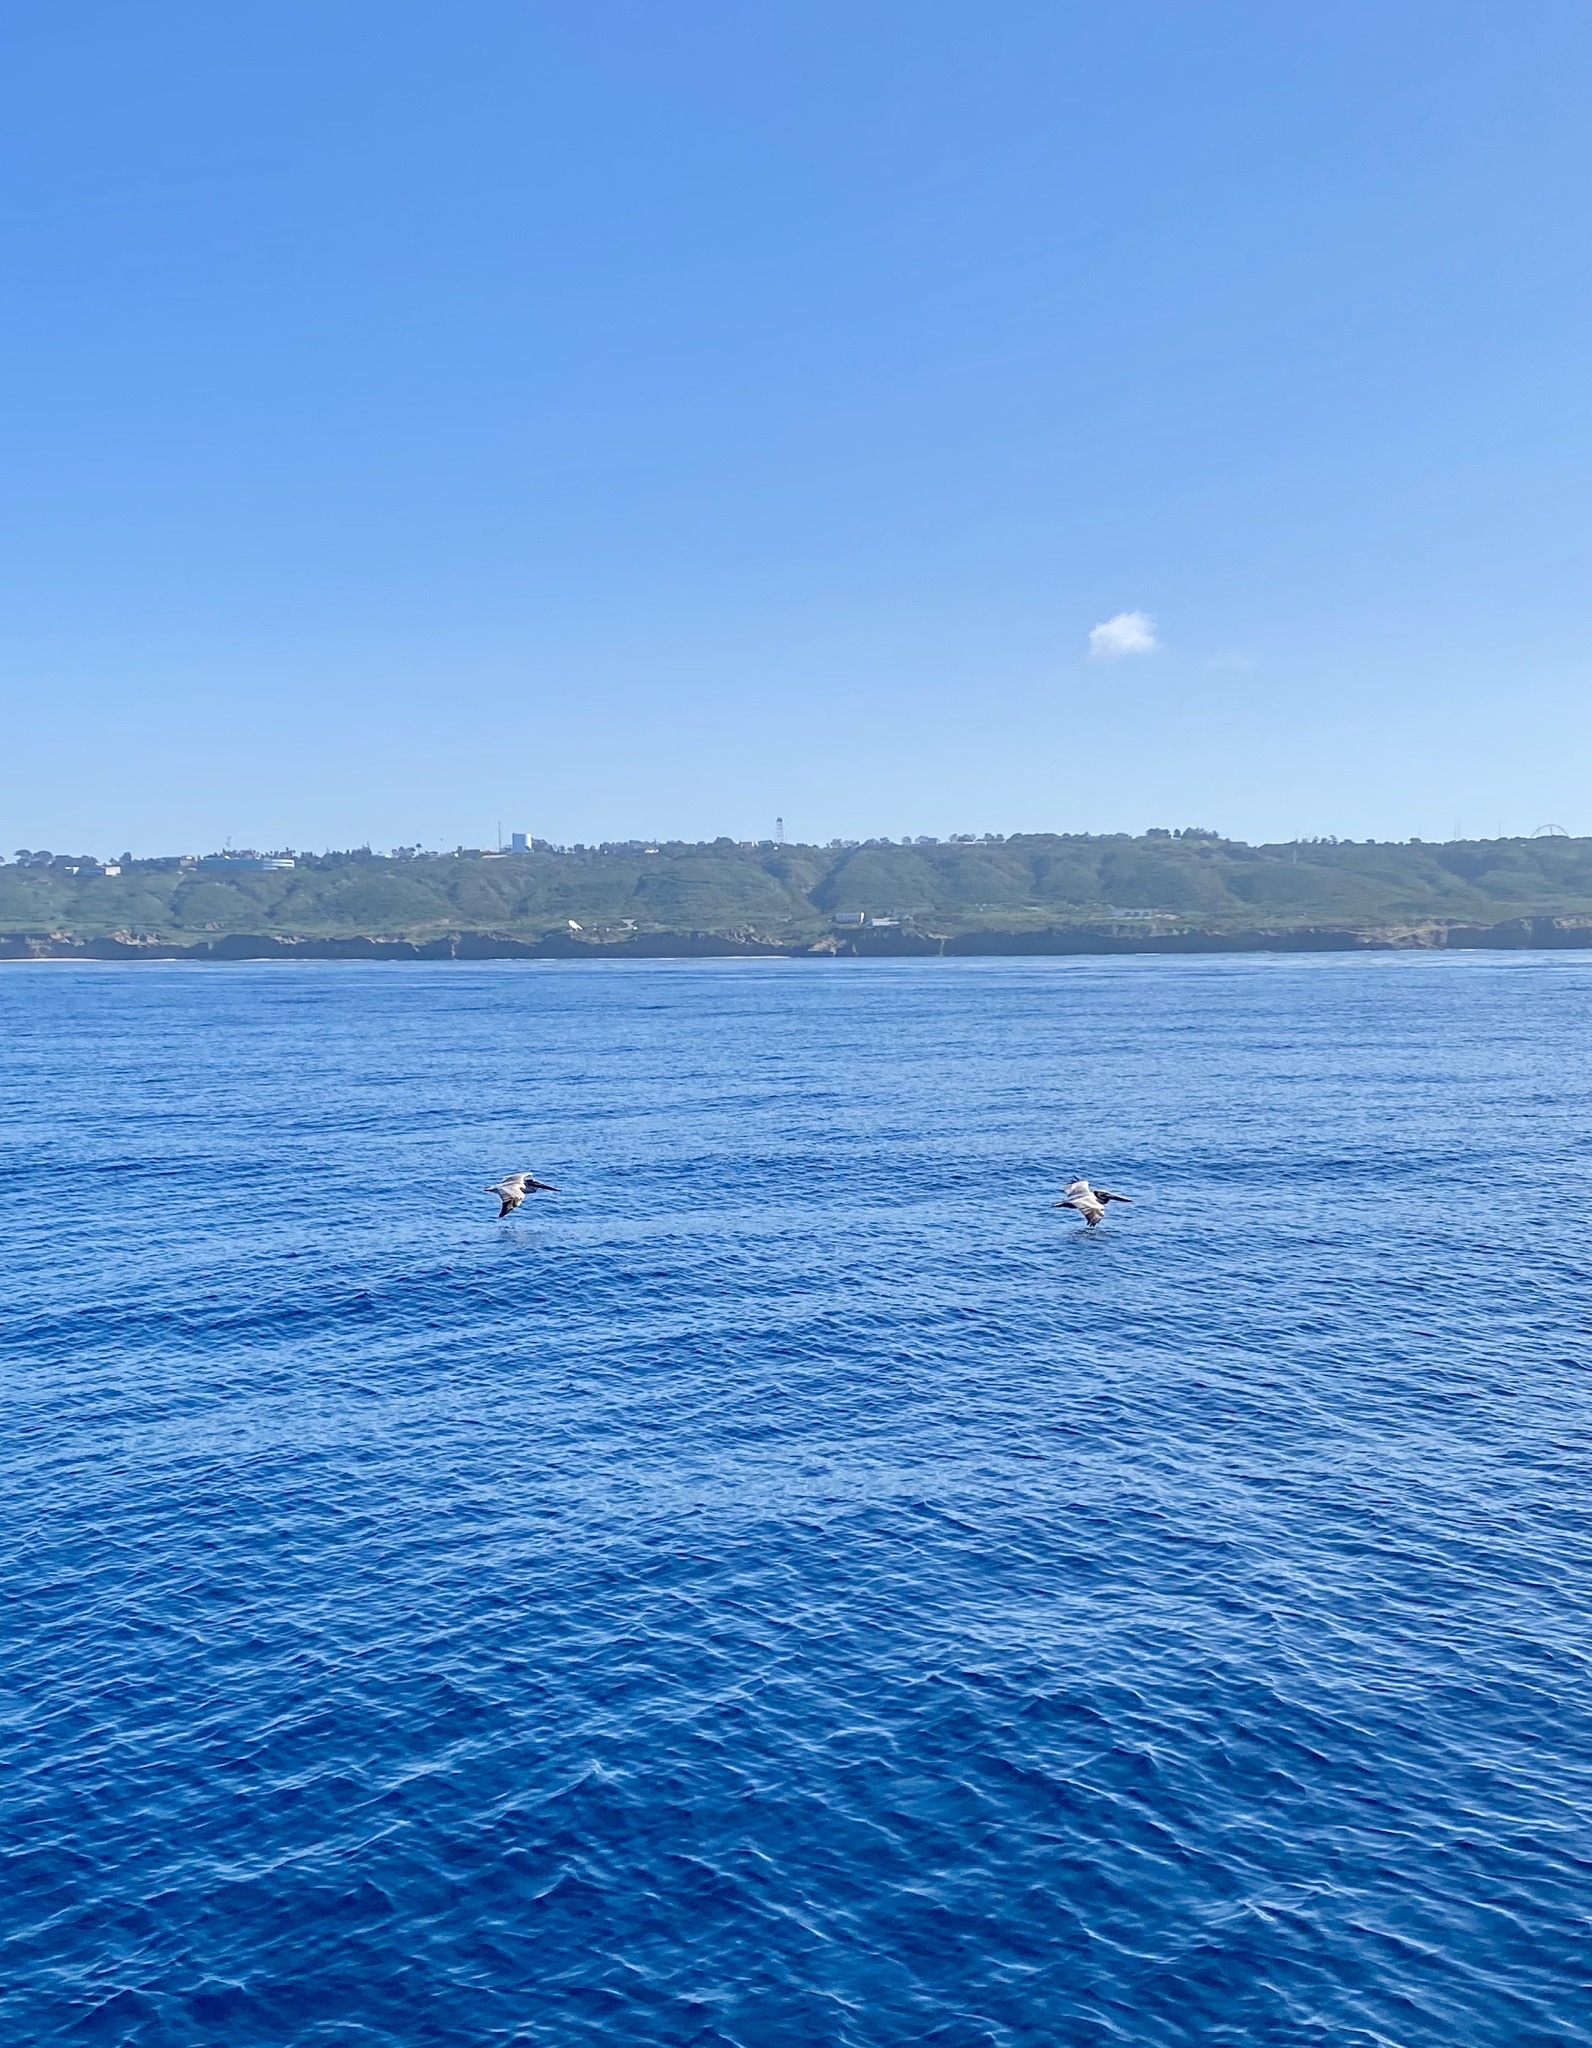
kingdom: Animalia
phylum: Chordata
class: Aves
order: Pelecaniformes
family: Pelecanidae
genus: Pelecanus
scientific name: Pelecanus occidentalis
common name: Brown pelican
